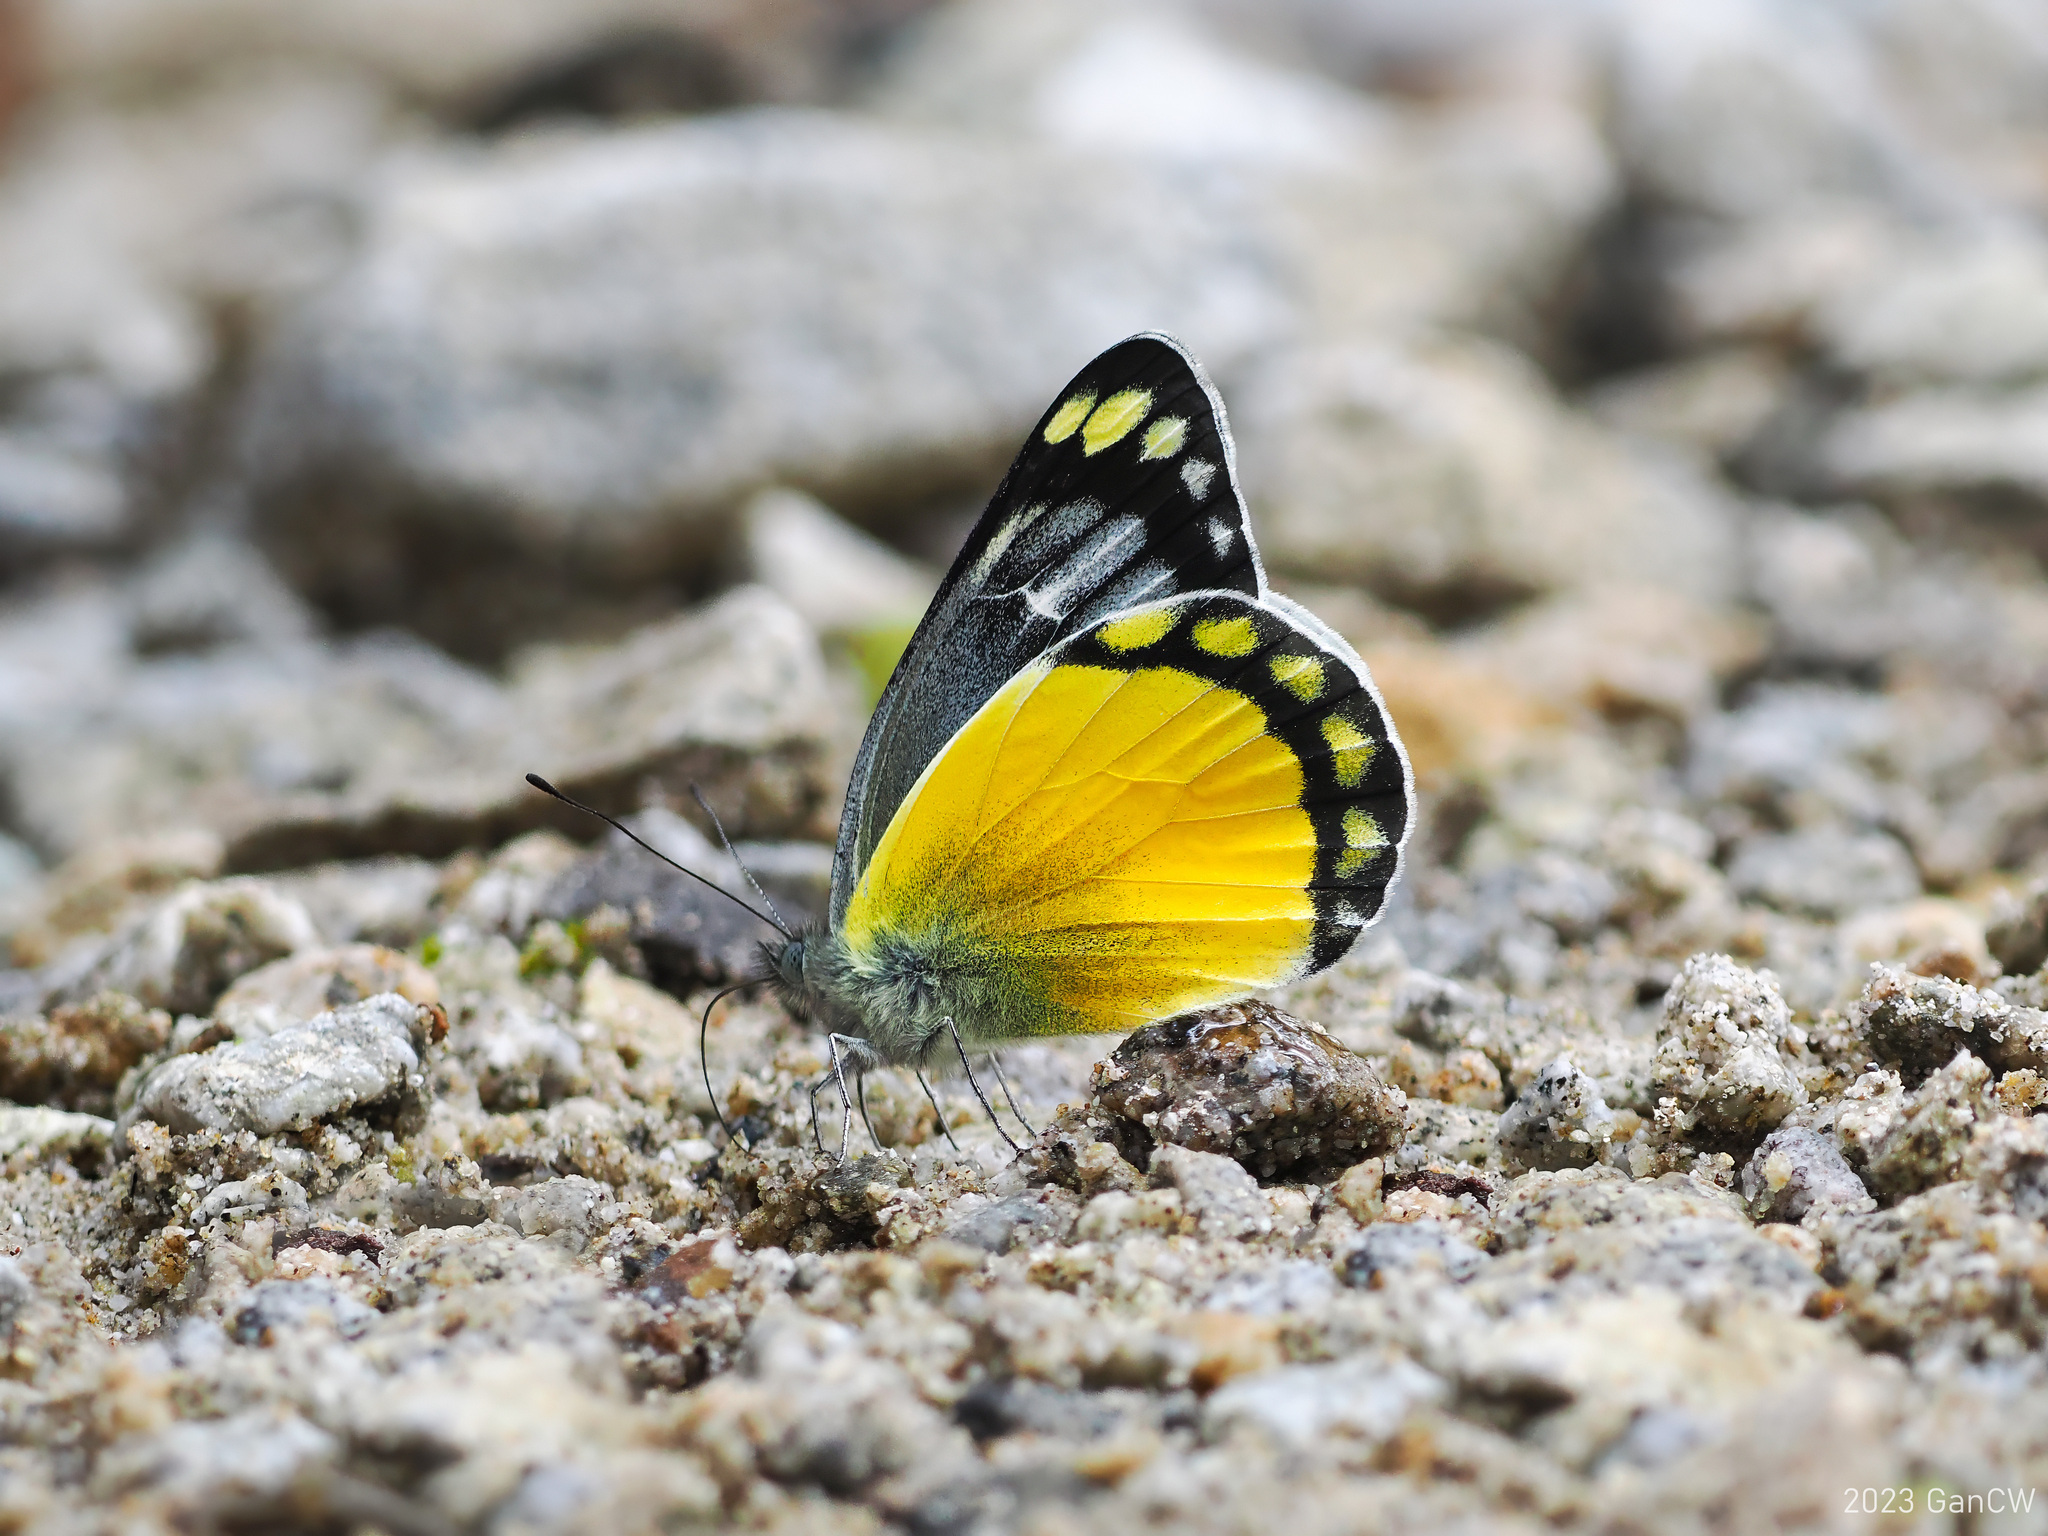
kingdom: Animalia
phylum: Arthropoda
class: Insecta
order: Lepidoptera
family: Pieridae
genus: Delias
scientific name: Delias melusina
